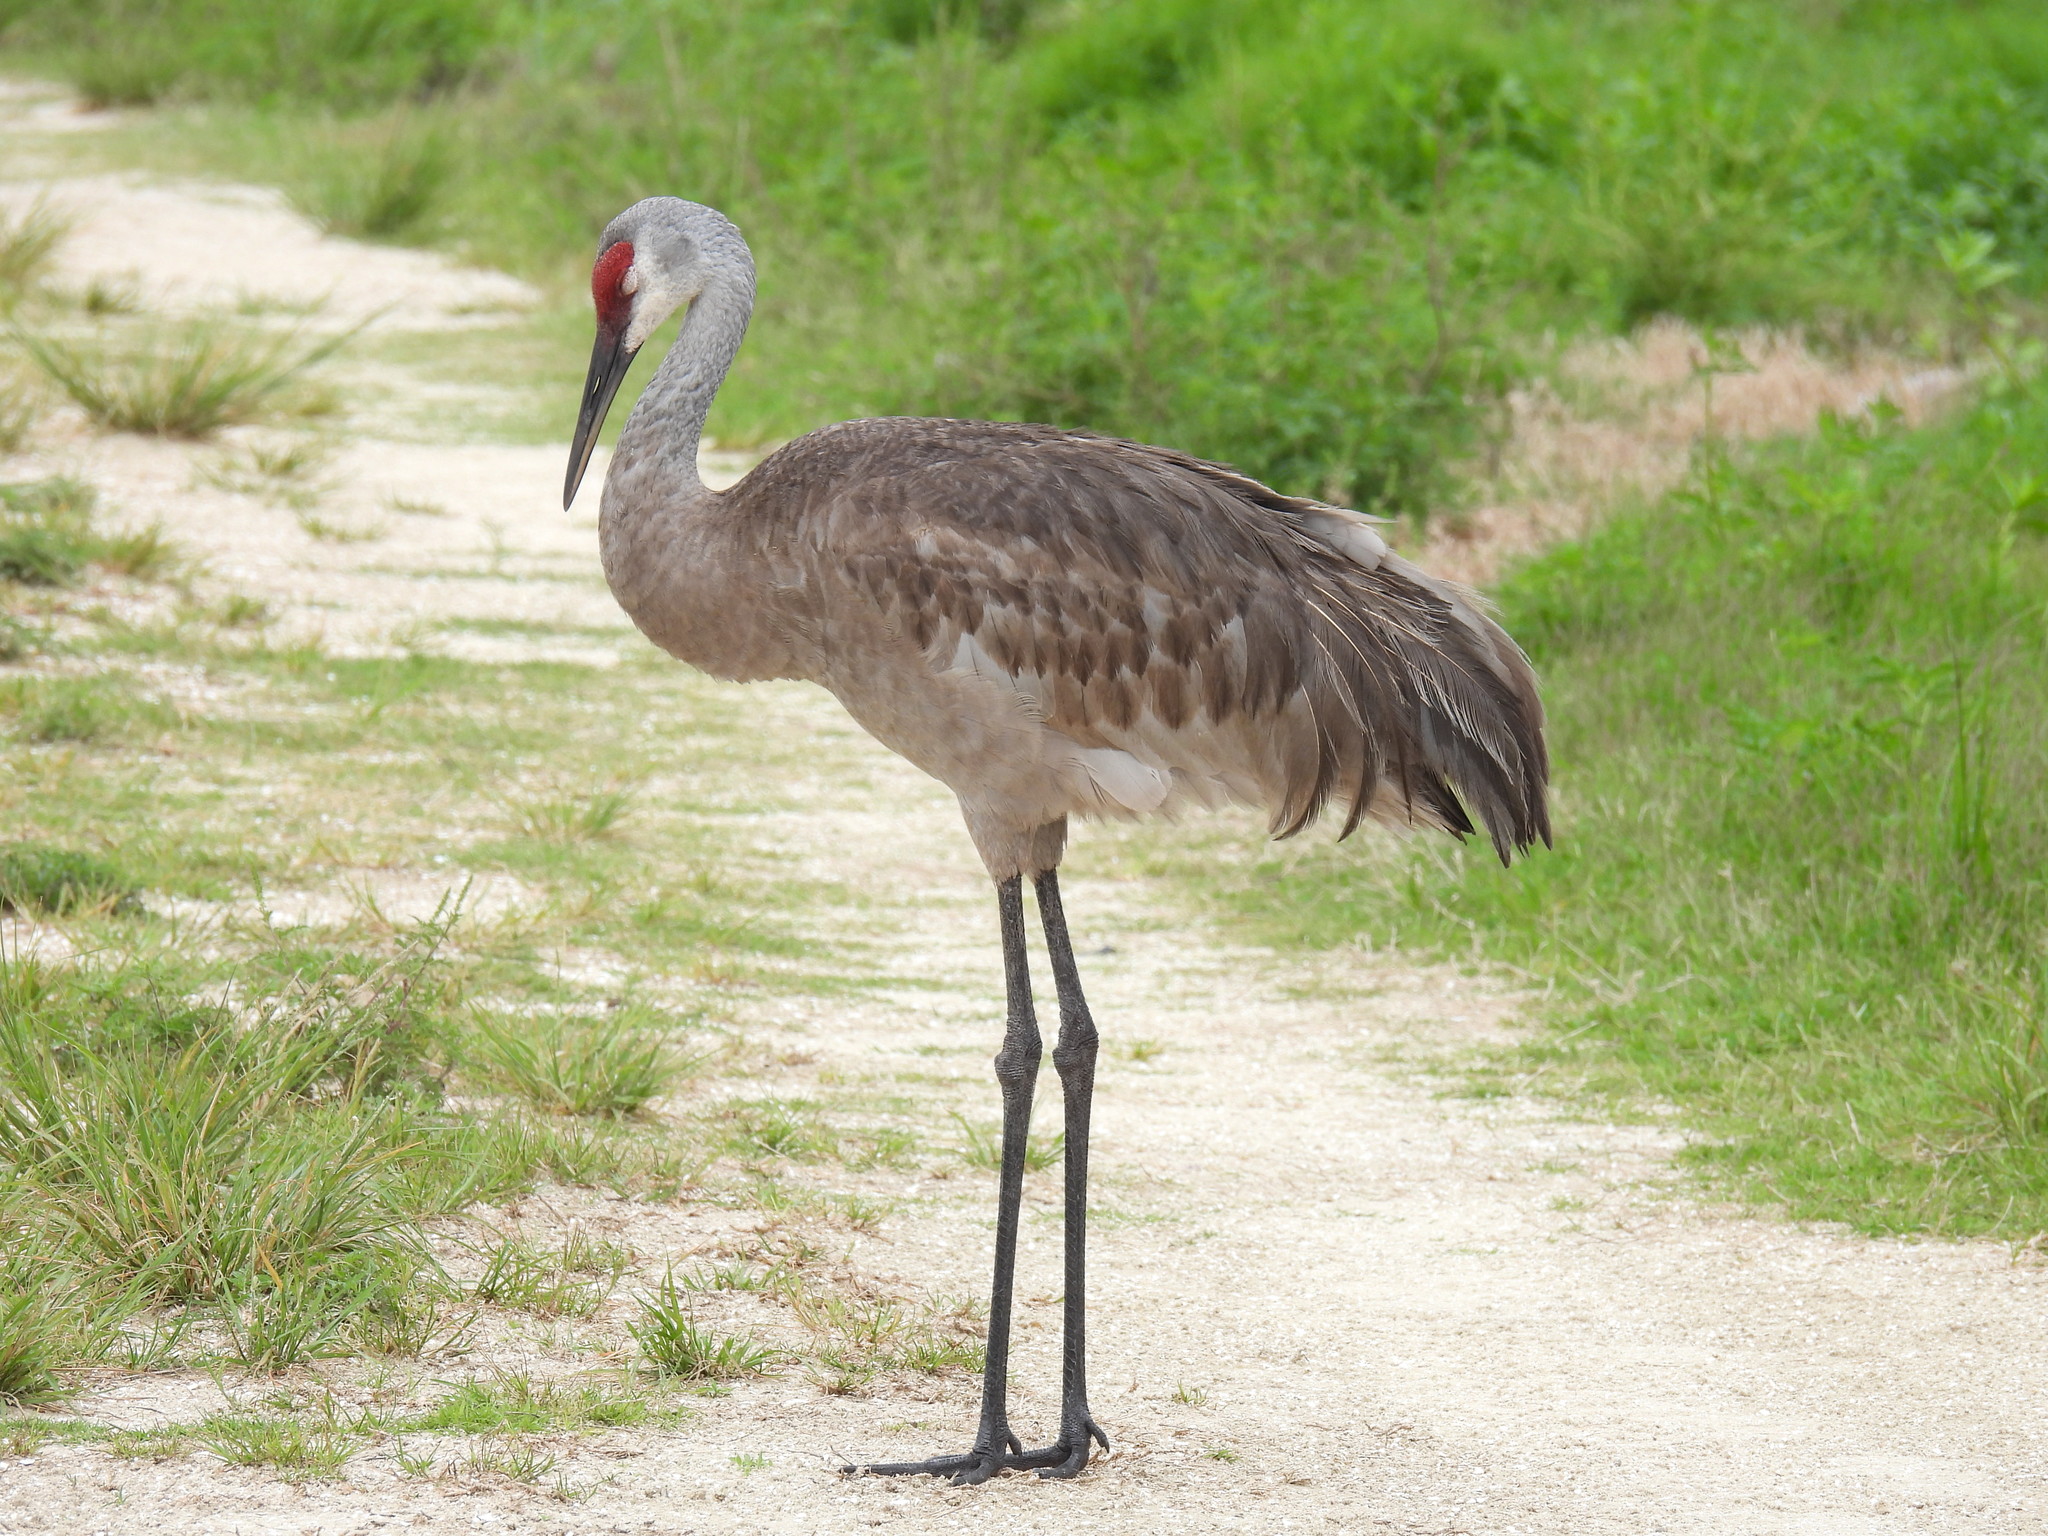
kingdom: Animalia
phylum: Chordata
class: Aves
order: Gruiformes
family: Gruidae
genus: Grus
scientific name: Grus canadensis
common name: Sandhill crane
